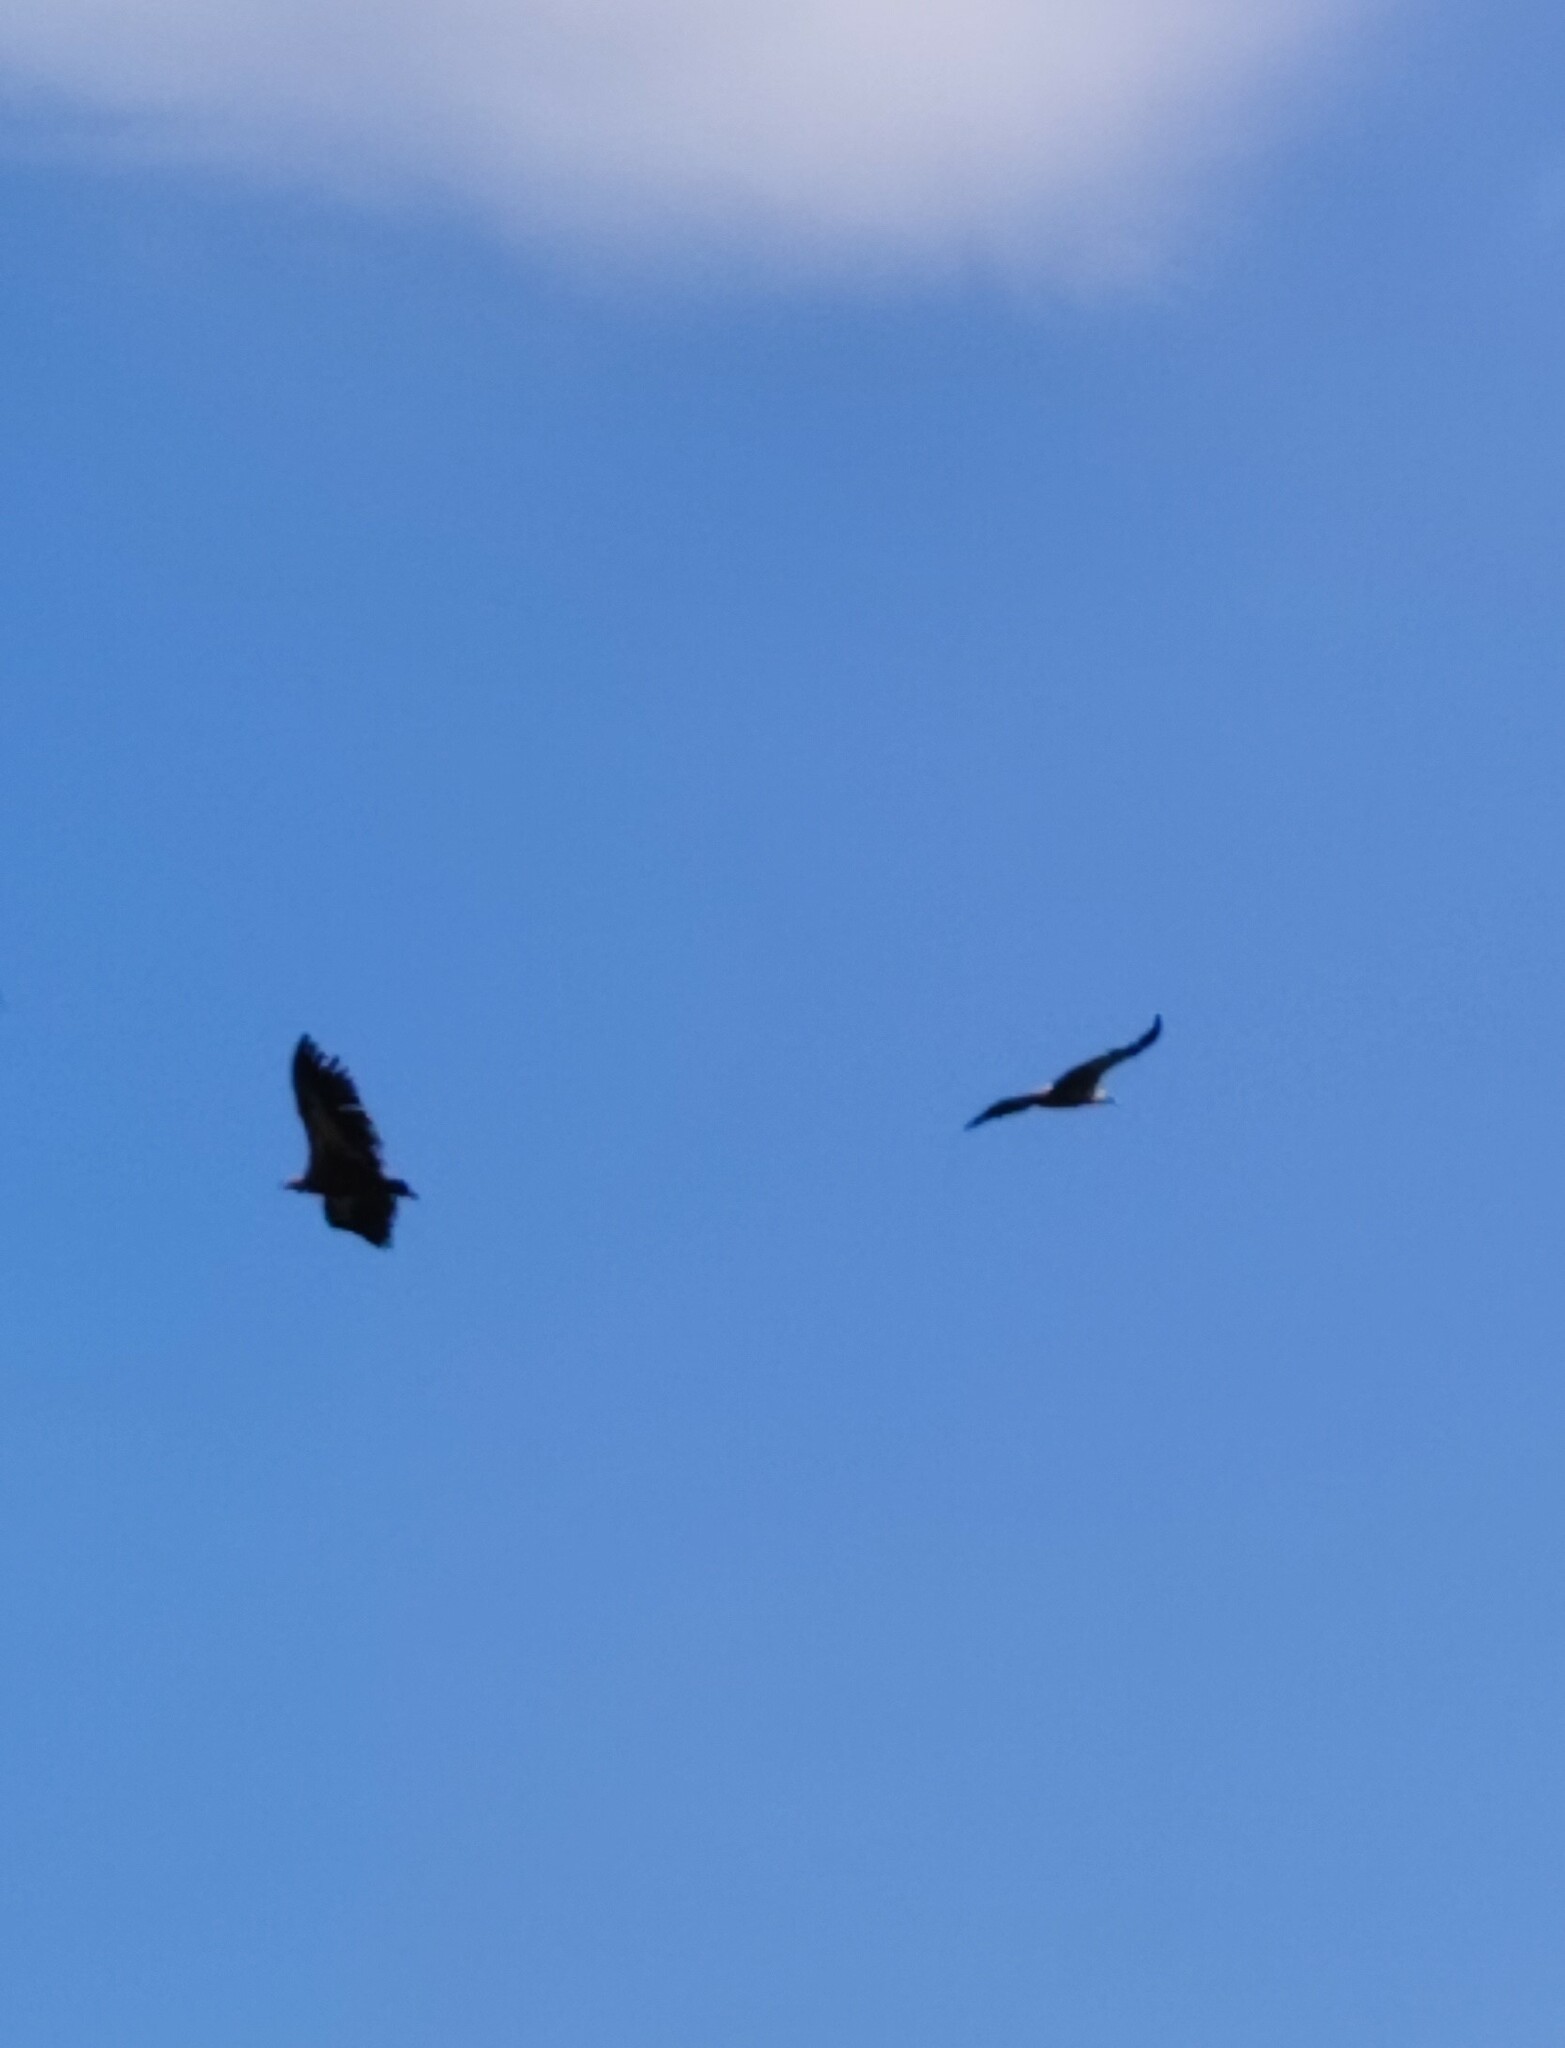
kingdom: Animalia
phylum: Chordata
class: Aves
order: Accipitriformes
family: Accipitridae
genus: Gyps
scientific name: Gyps fulvus
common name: Griffon vulture
